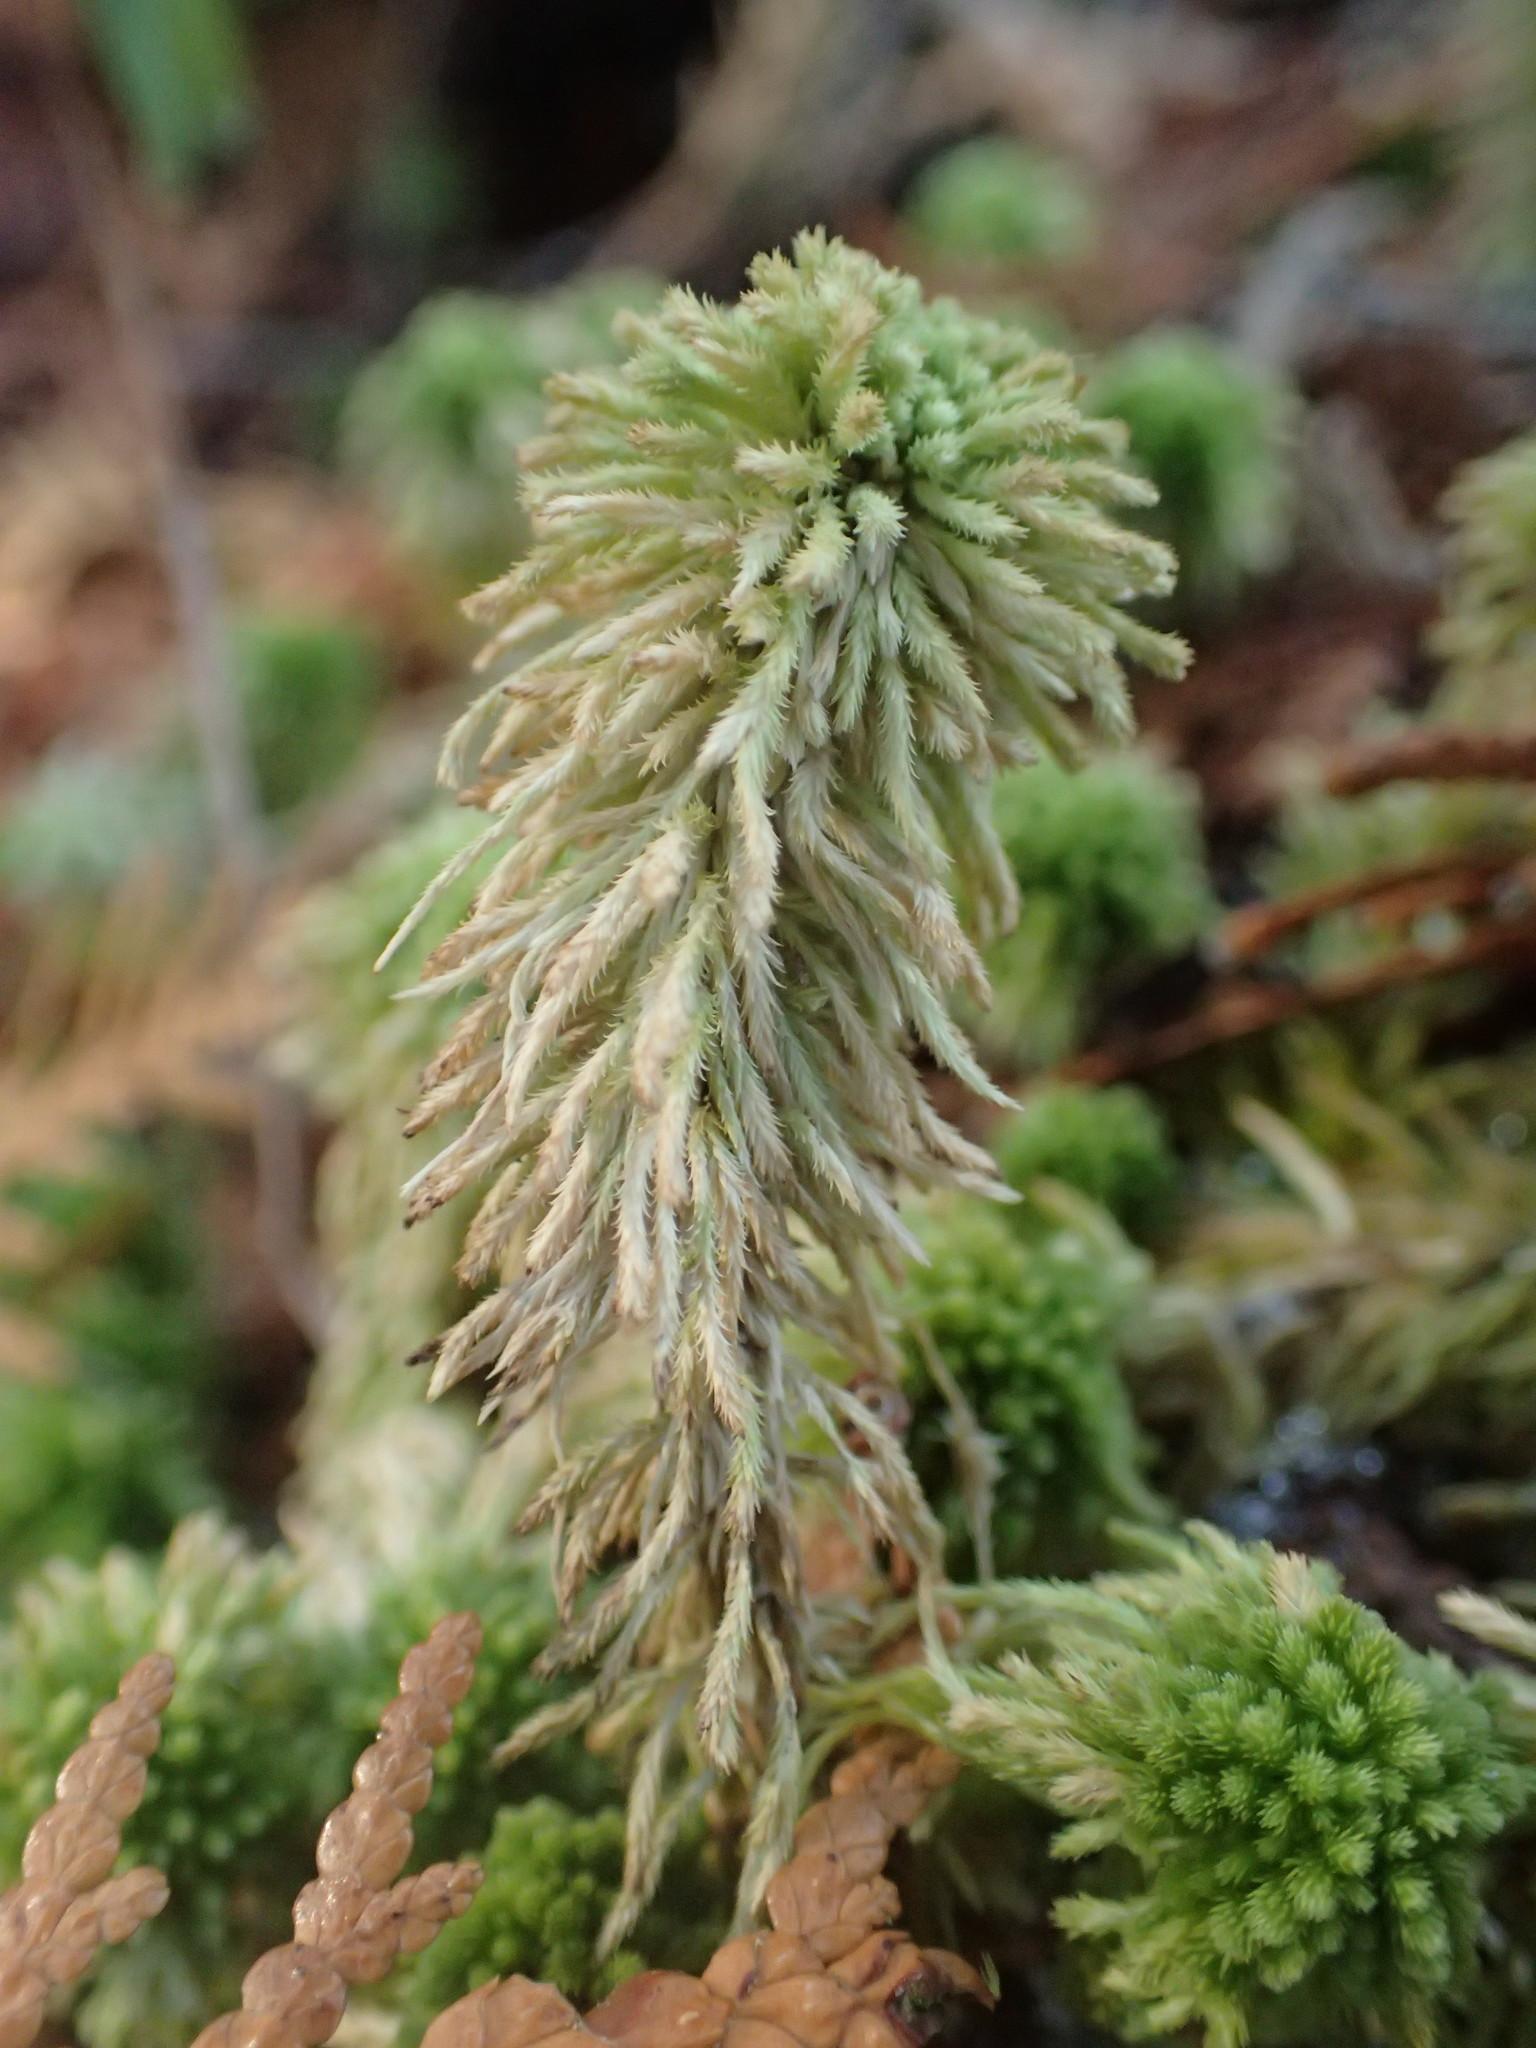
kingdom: Plantae
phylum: Bryophyta
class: Sphagnopsida
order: Sphagnales
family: Sphagnaceae
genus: Sphagnum
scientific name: Sphagnum wulfianum
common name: Wulf's peat moss
